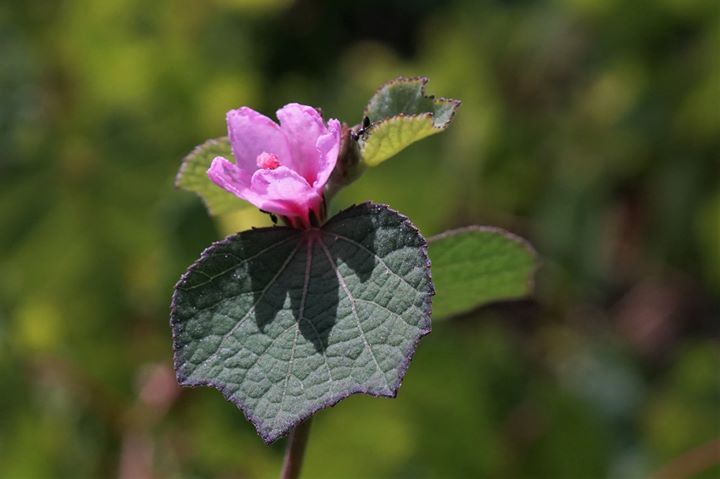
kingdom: Plantae
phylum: Tracheophyta
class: Magnoliopsida
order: Malvales
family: Malvaceae
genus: Urena
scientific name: Urena lobata
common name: Caesarweed
